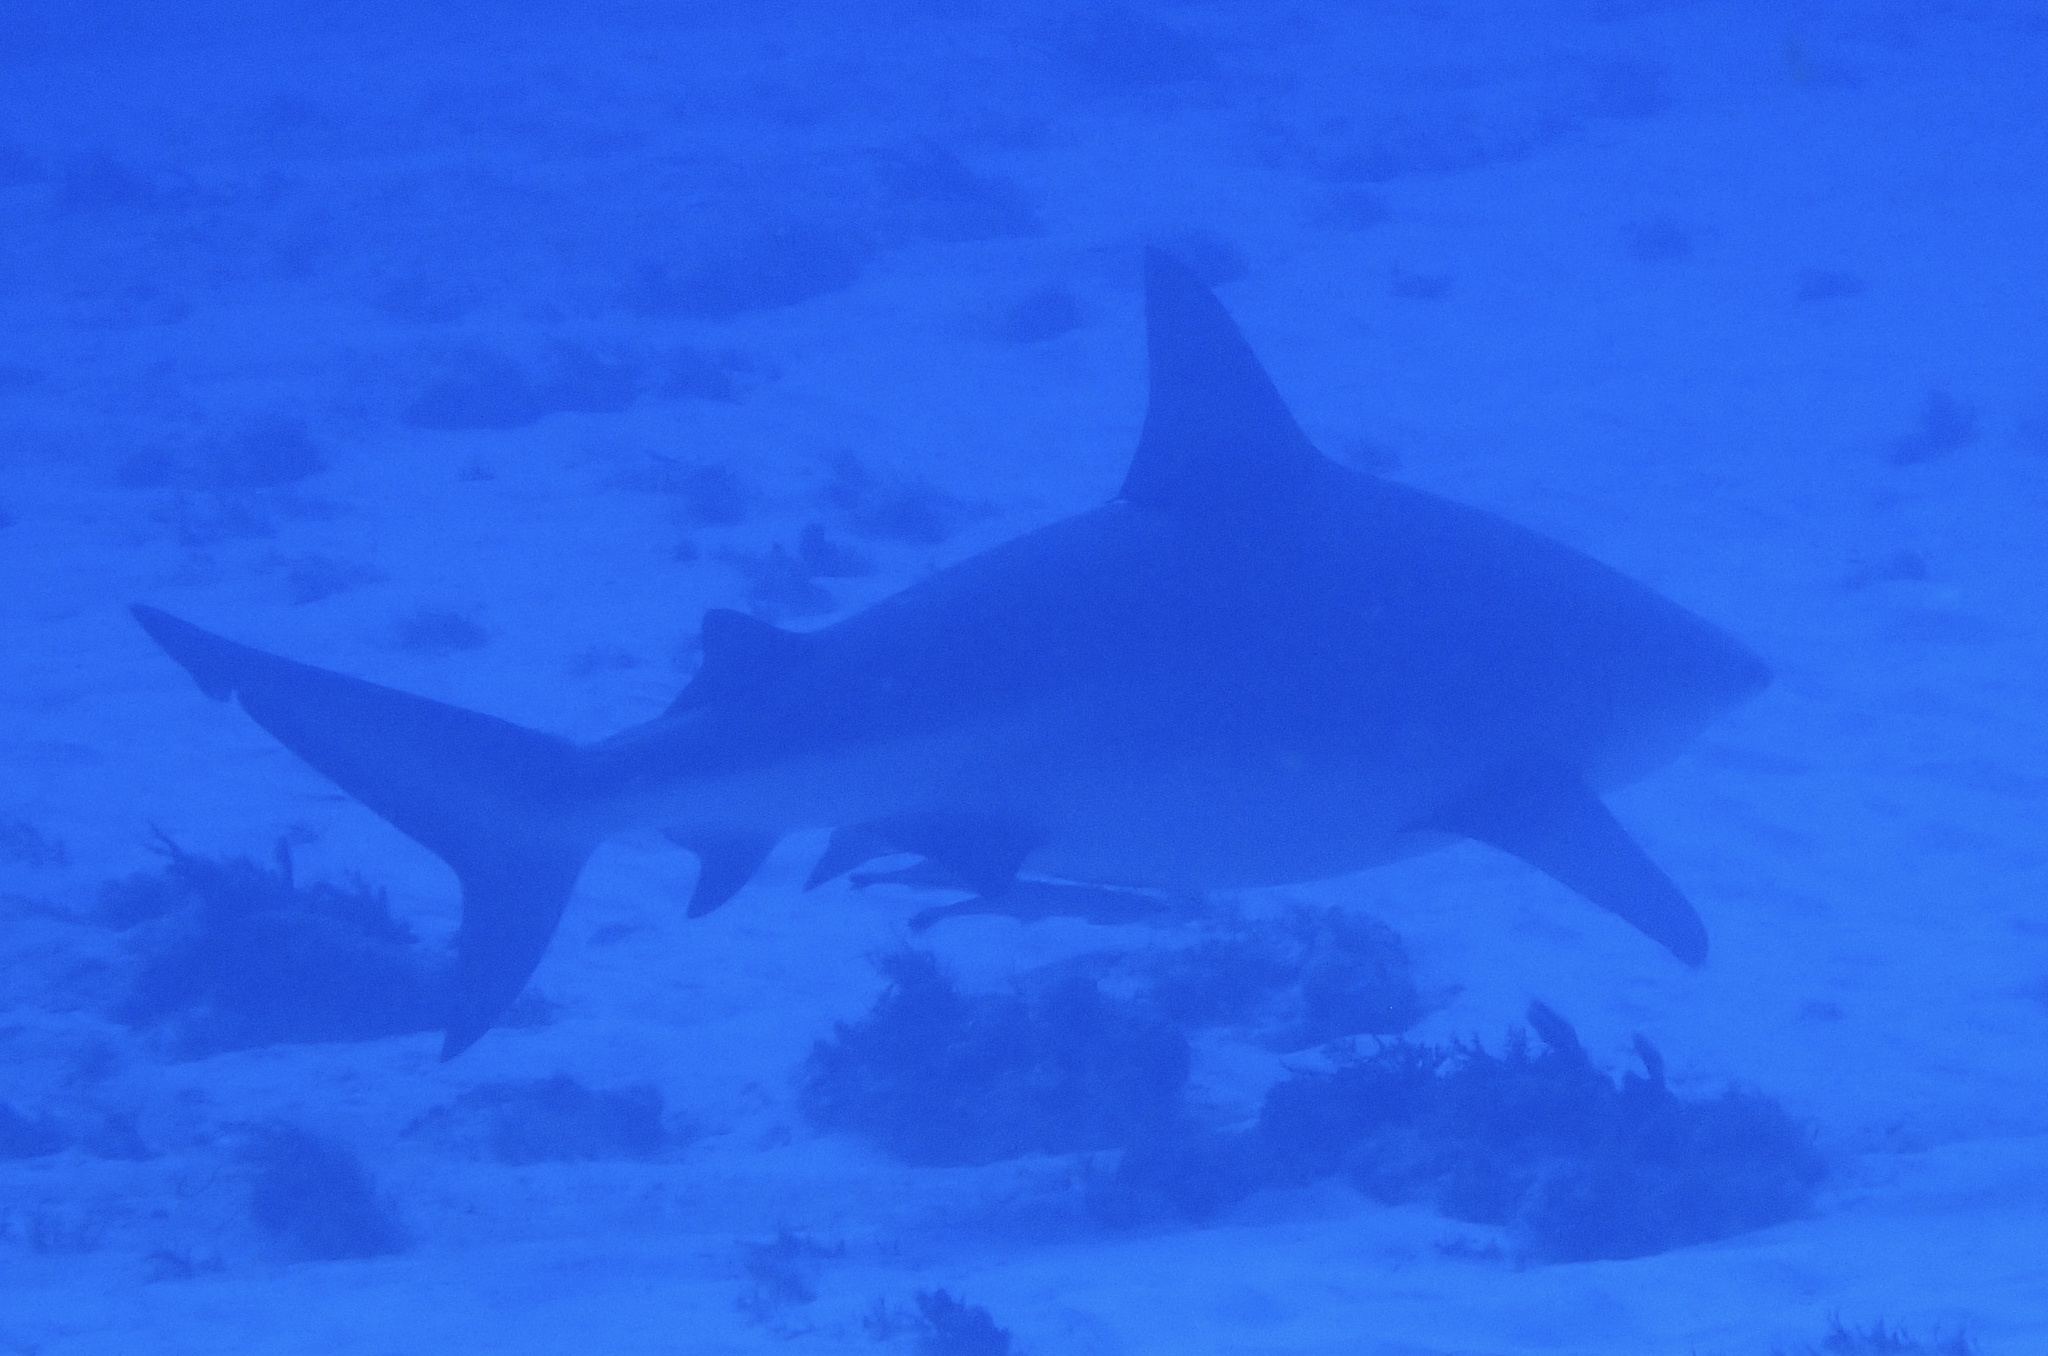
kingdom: Animalia
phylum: Chordata
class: Elasmobranchii
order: Carcharhiniformes
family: Carcharhinidae
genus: Carcharhinus
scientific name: Carcharhinus leucas
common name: Bull shark
